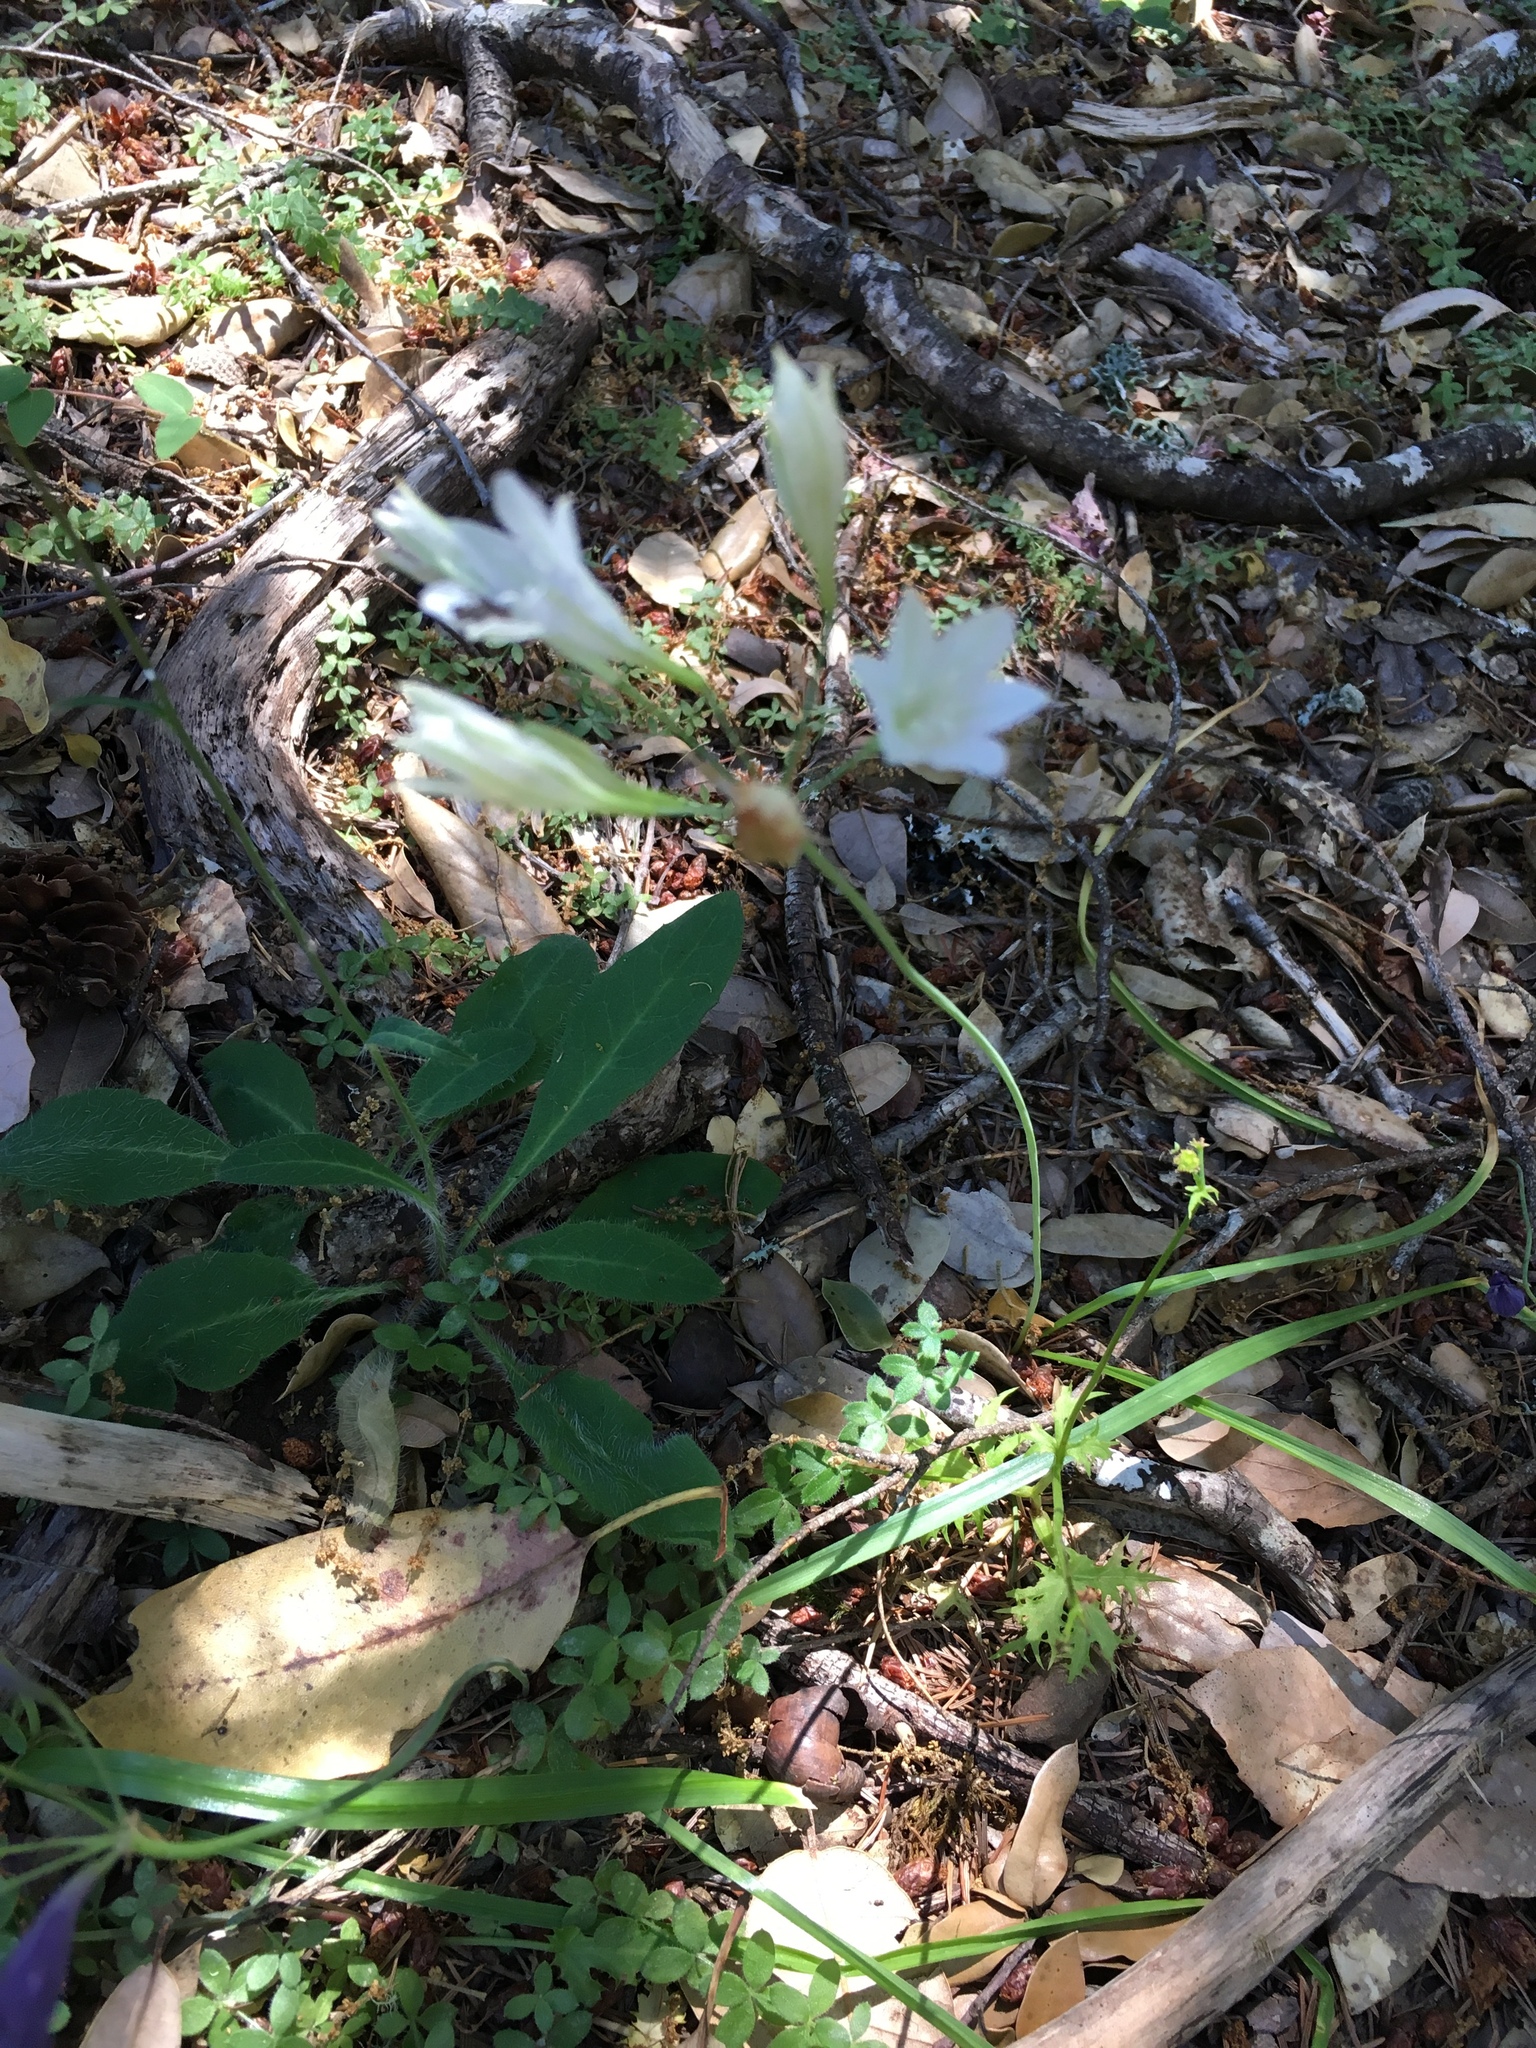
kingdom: Plantae
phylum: Tracheophyta
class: Liliopsida
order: Asparagales
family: Asparagaceae
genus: Triteleia
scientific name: Triteleia laxa
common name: Triplet-lily
